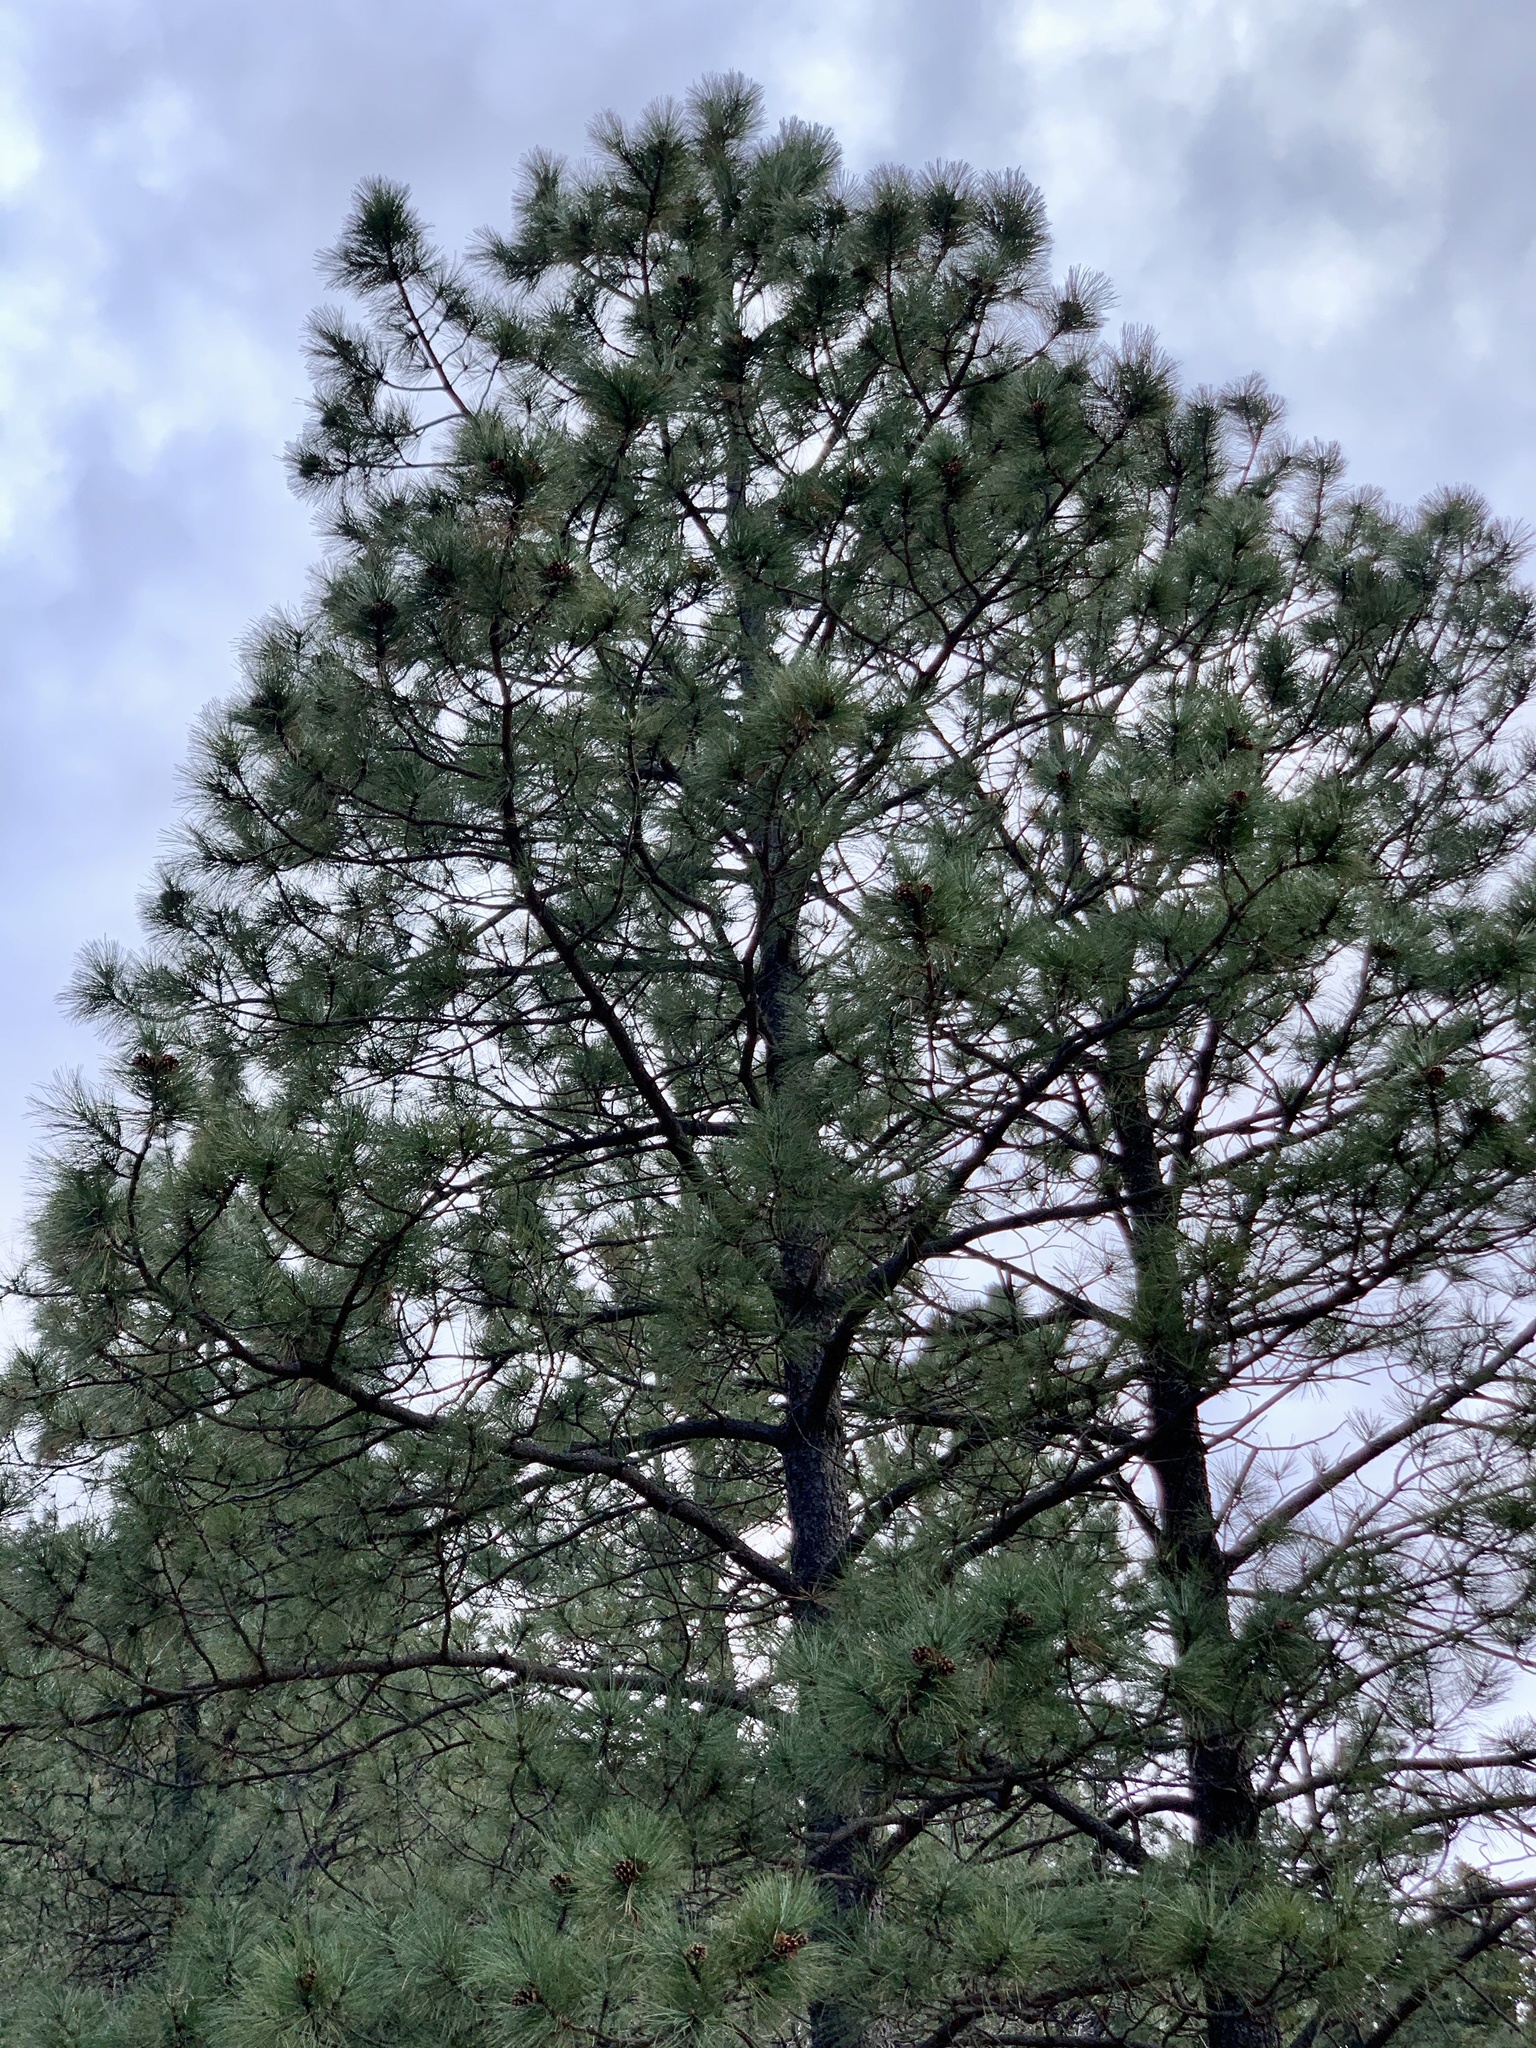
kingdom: Plantae
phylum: Tracheophyta
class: Pinopsida
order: Pinales
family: Pinaceae
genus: Pinus
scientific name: Pinus ponderosa
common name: Western yellow-pine
